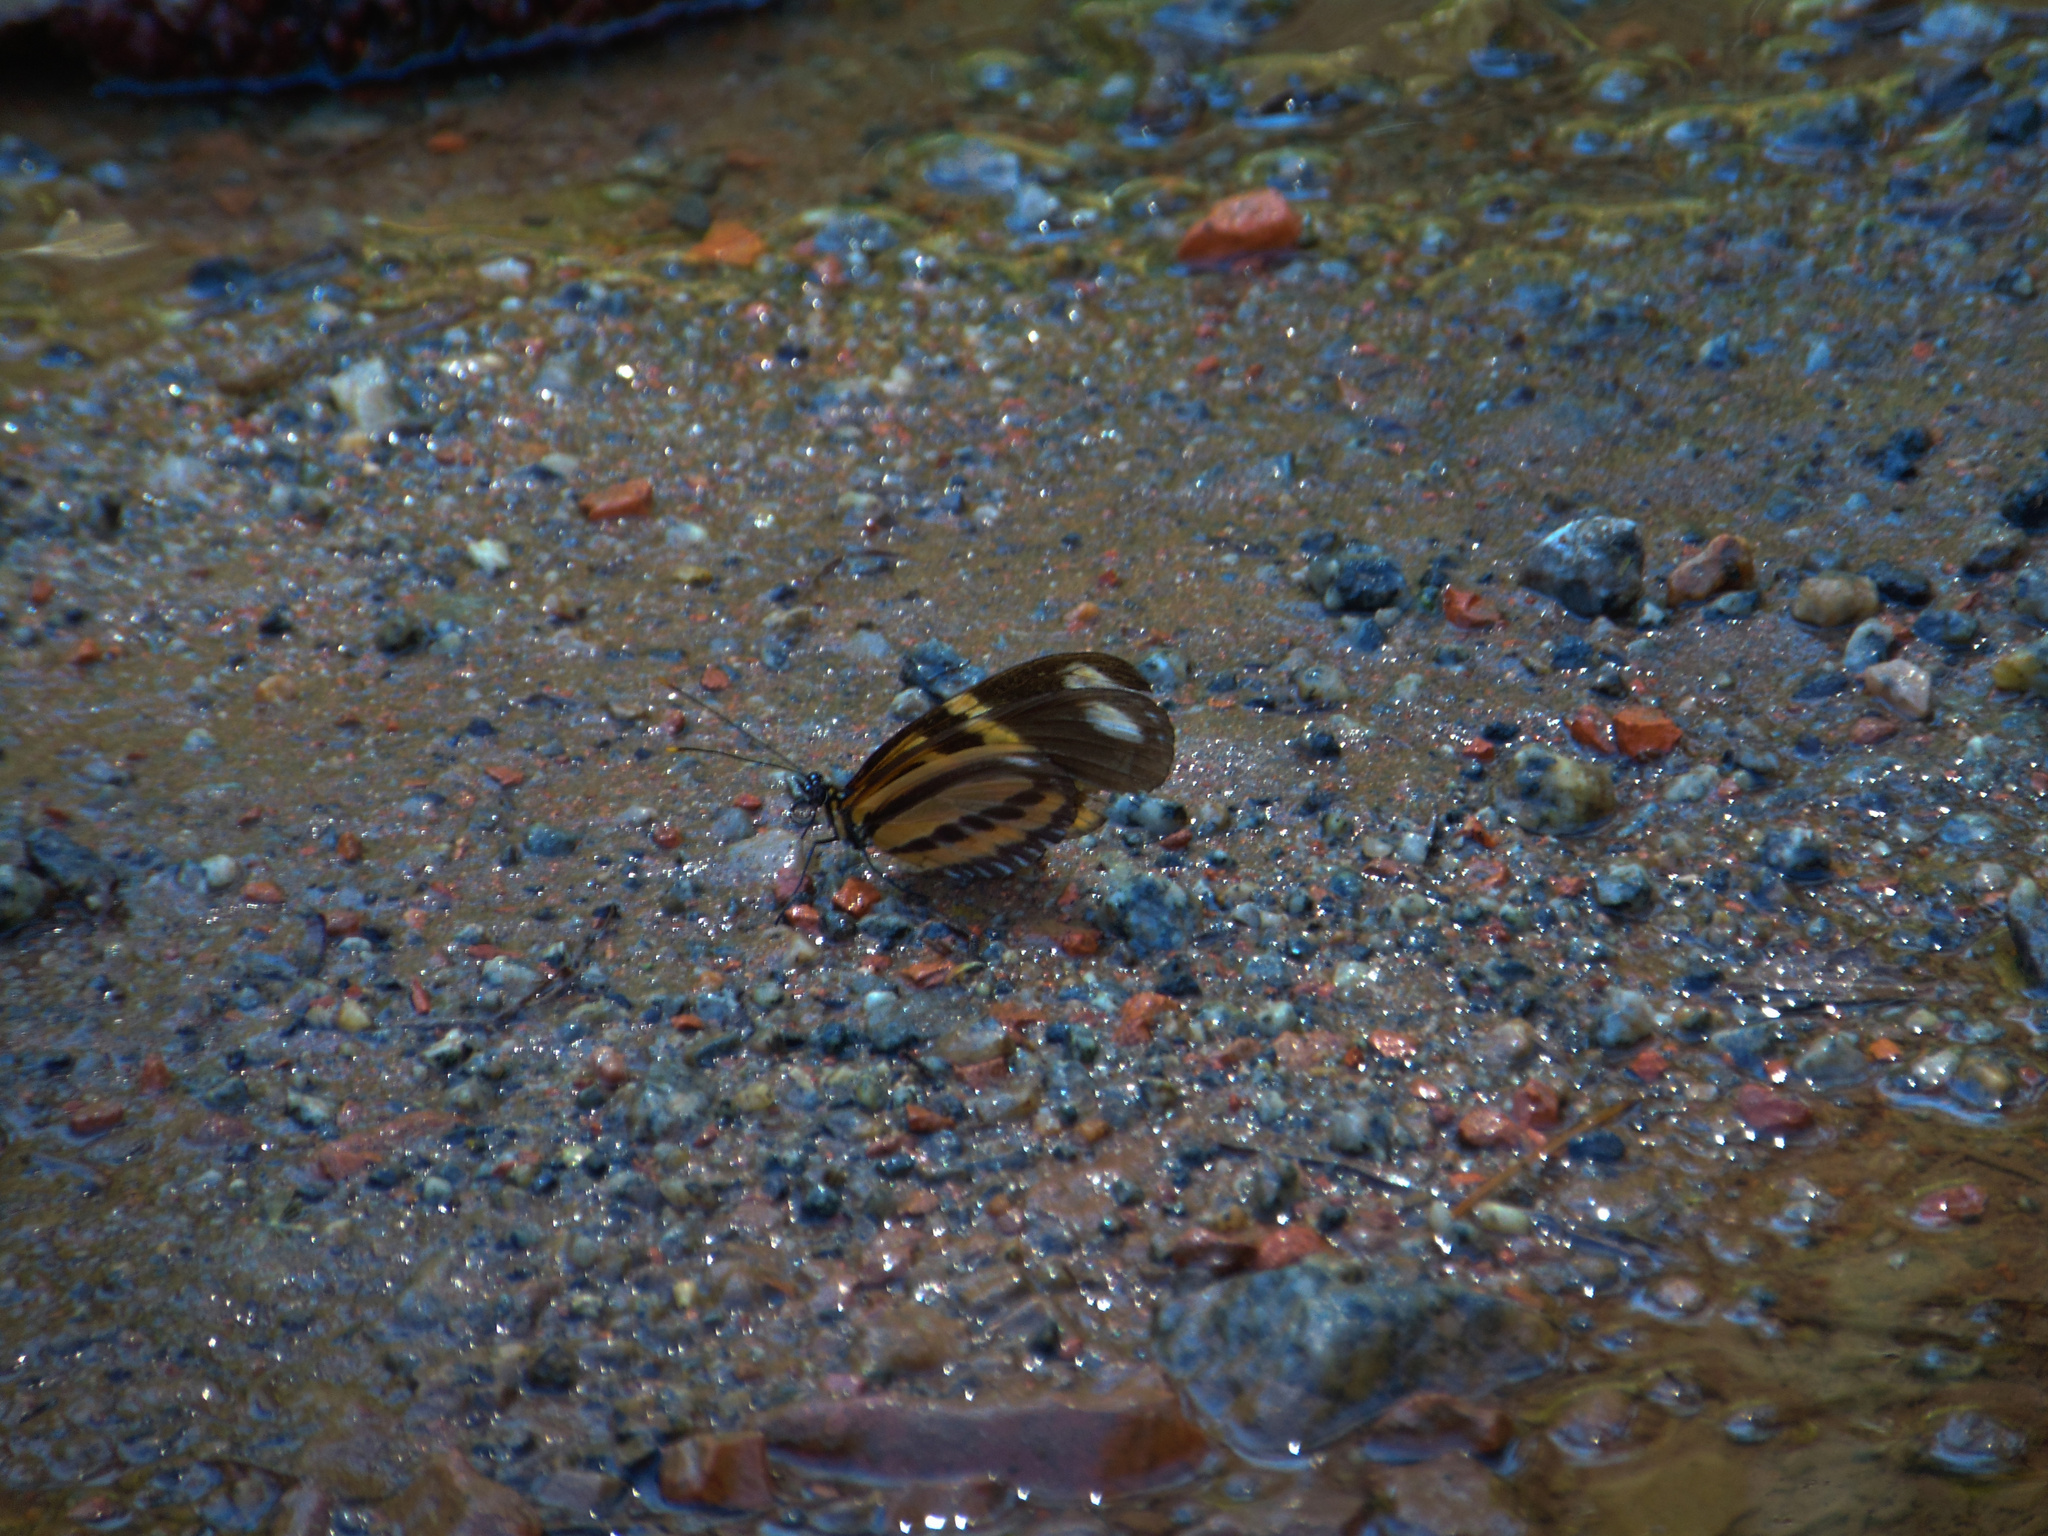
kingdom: Animalia
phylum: Arthropoda
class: Insecta
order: Lepidoptera
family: Nymphalidae
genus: Heliconius
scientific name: Heliconius ethilla
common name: Ethilia longwing
